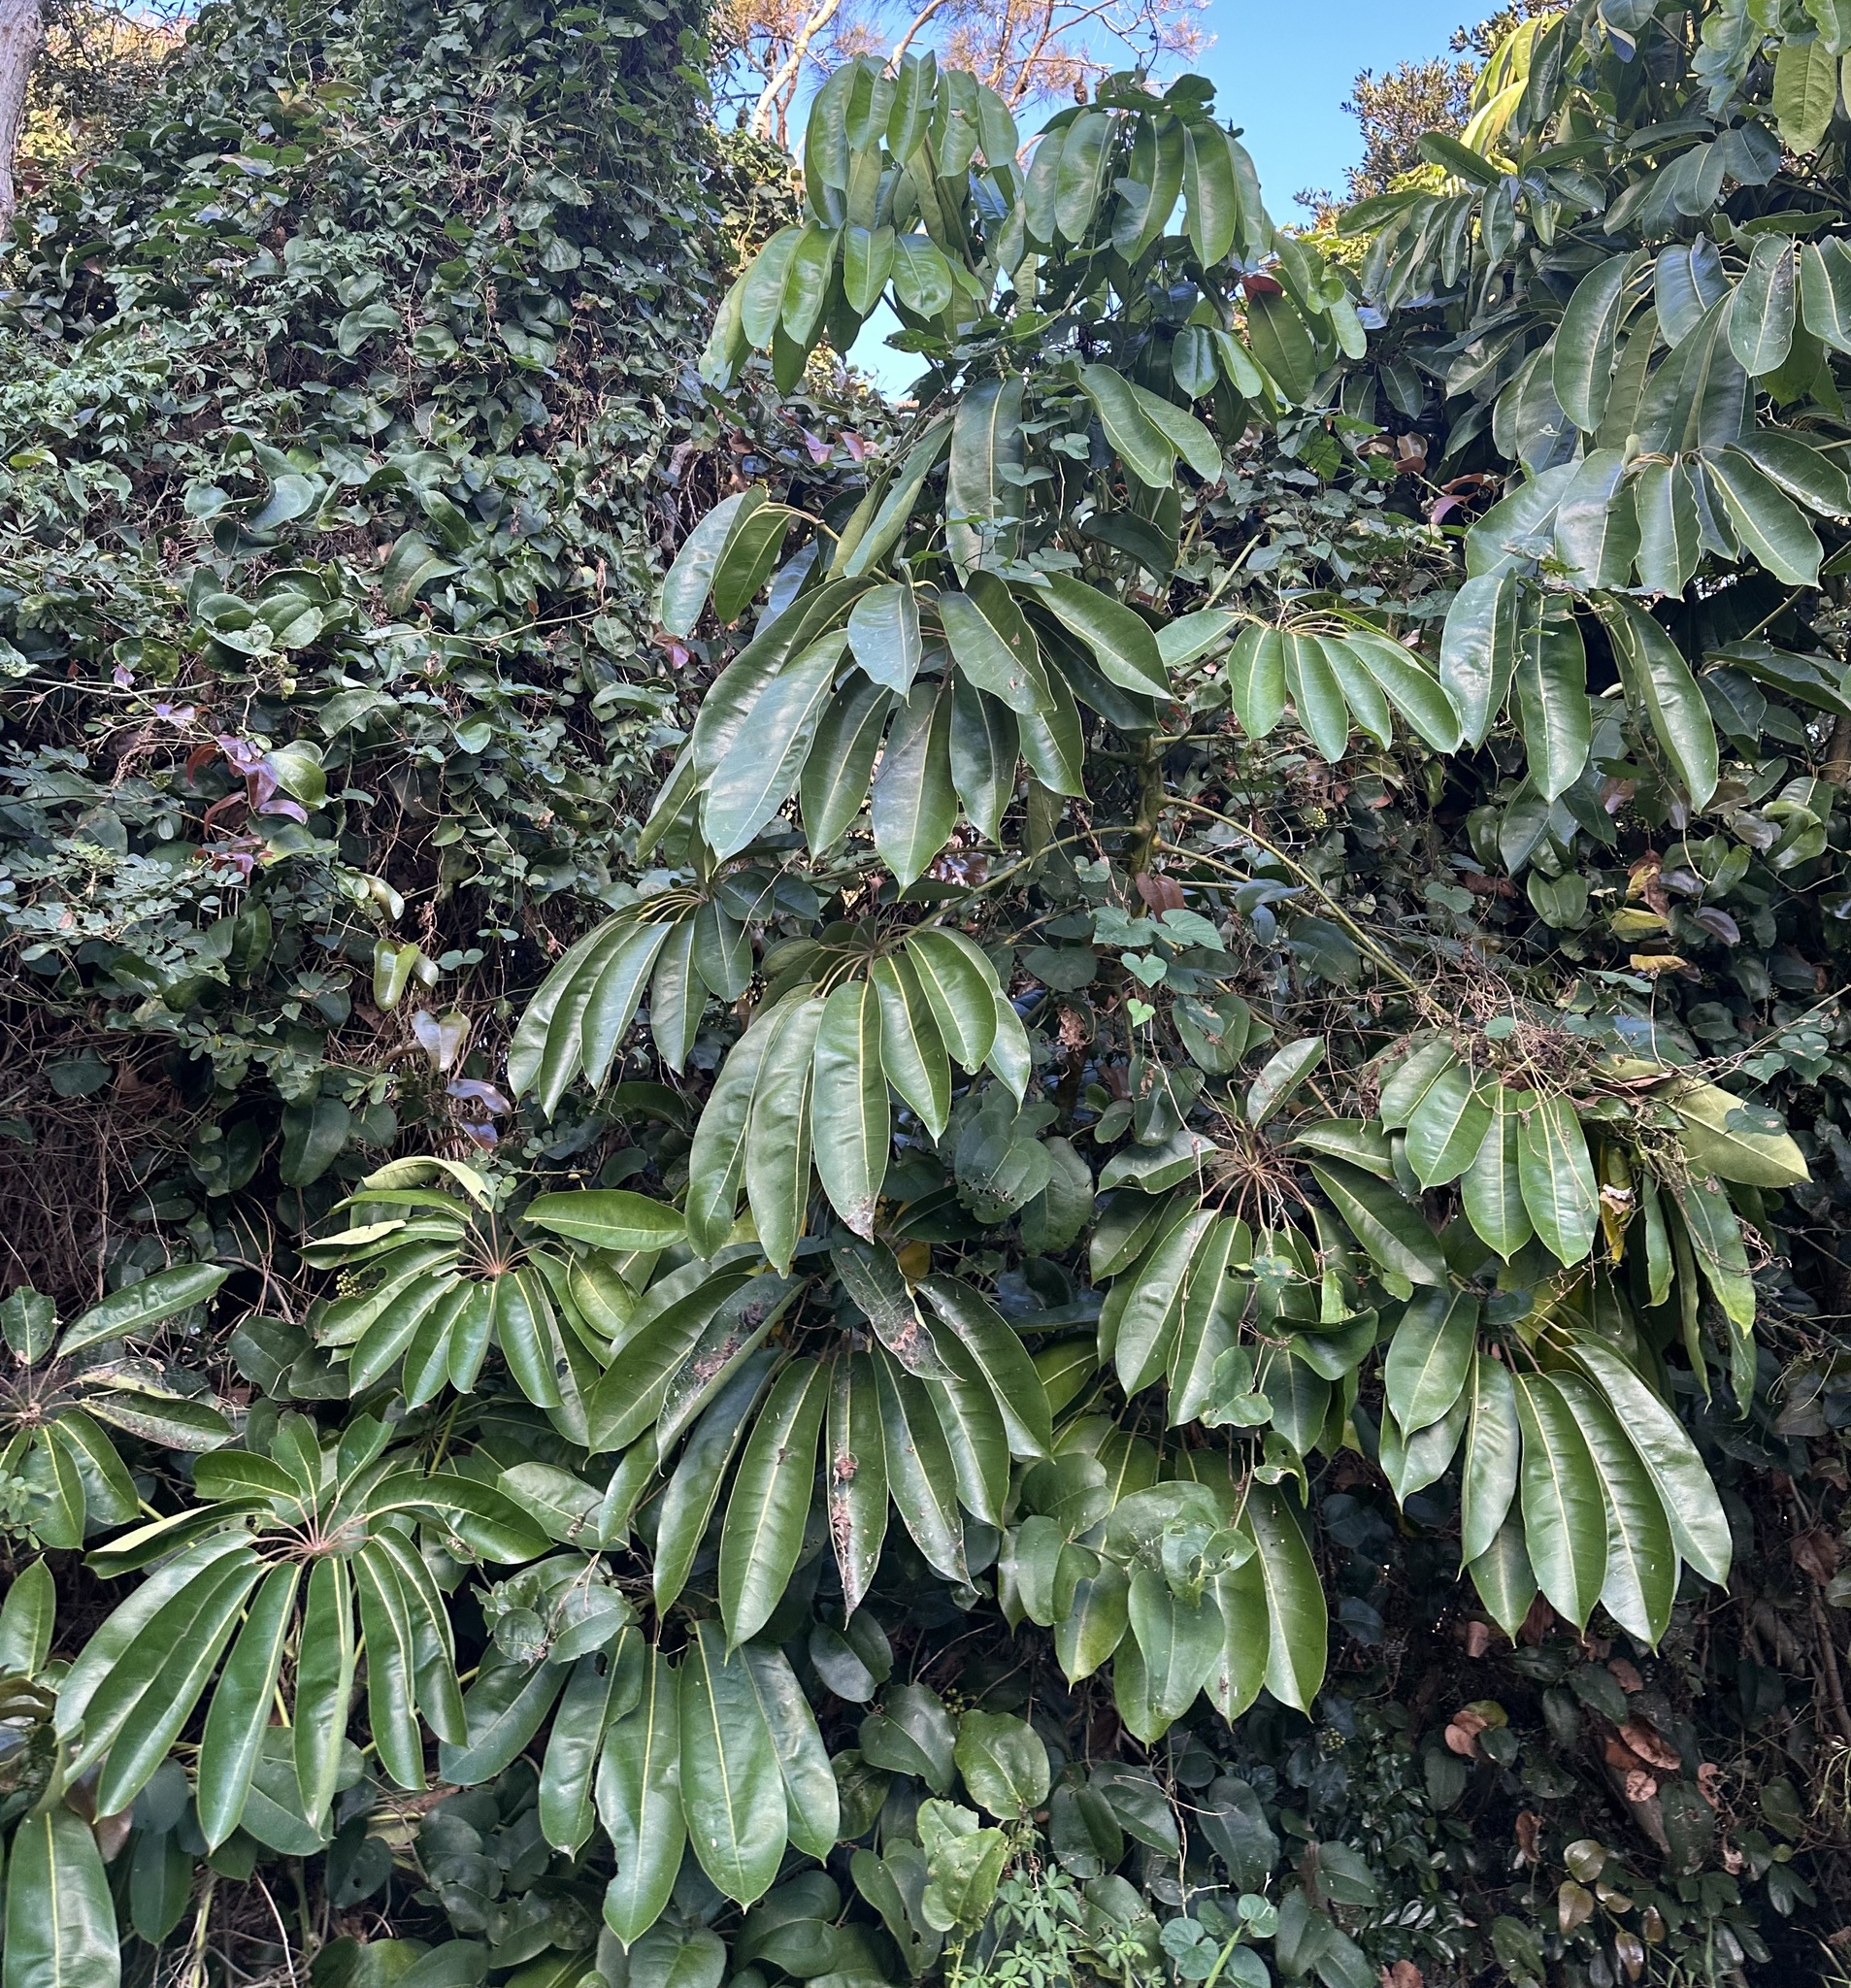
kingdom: Plantae
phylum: Tracheophyta
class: Magnoliopsida
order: Apiales
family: Araliaceae
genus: Heptapleurum
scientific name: Heptapleurum actinophyllum
